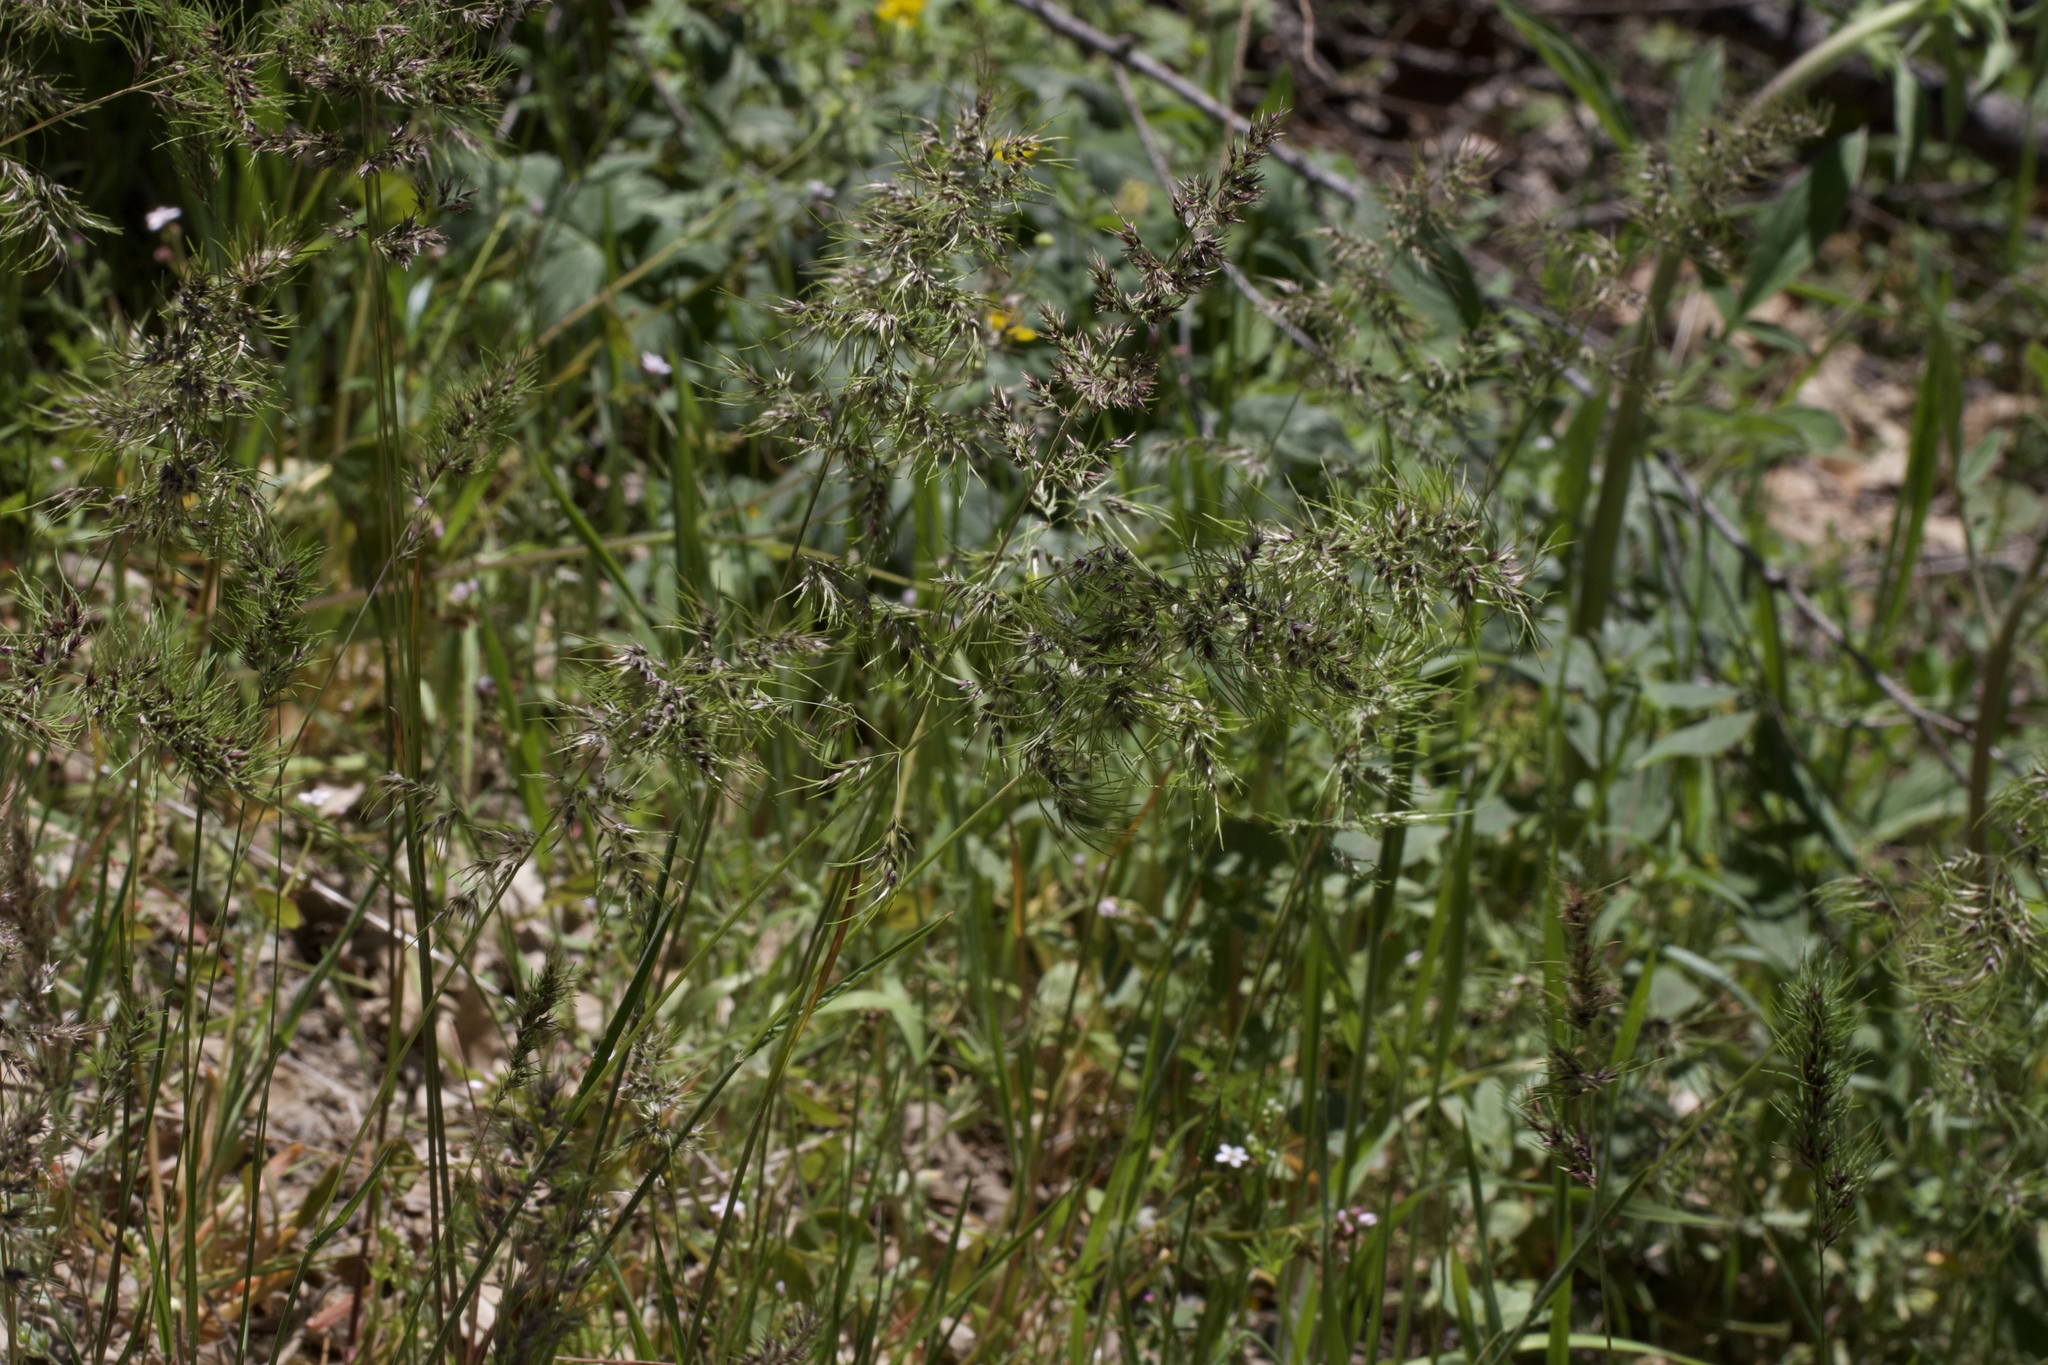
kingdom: Plantae
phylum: Tracheophyta
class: Liliopsida
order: Poales
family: Poaceae
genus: Poa
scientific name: Poa bulbosa
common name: Bulbous bluegrass
